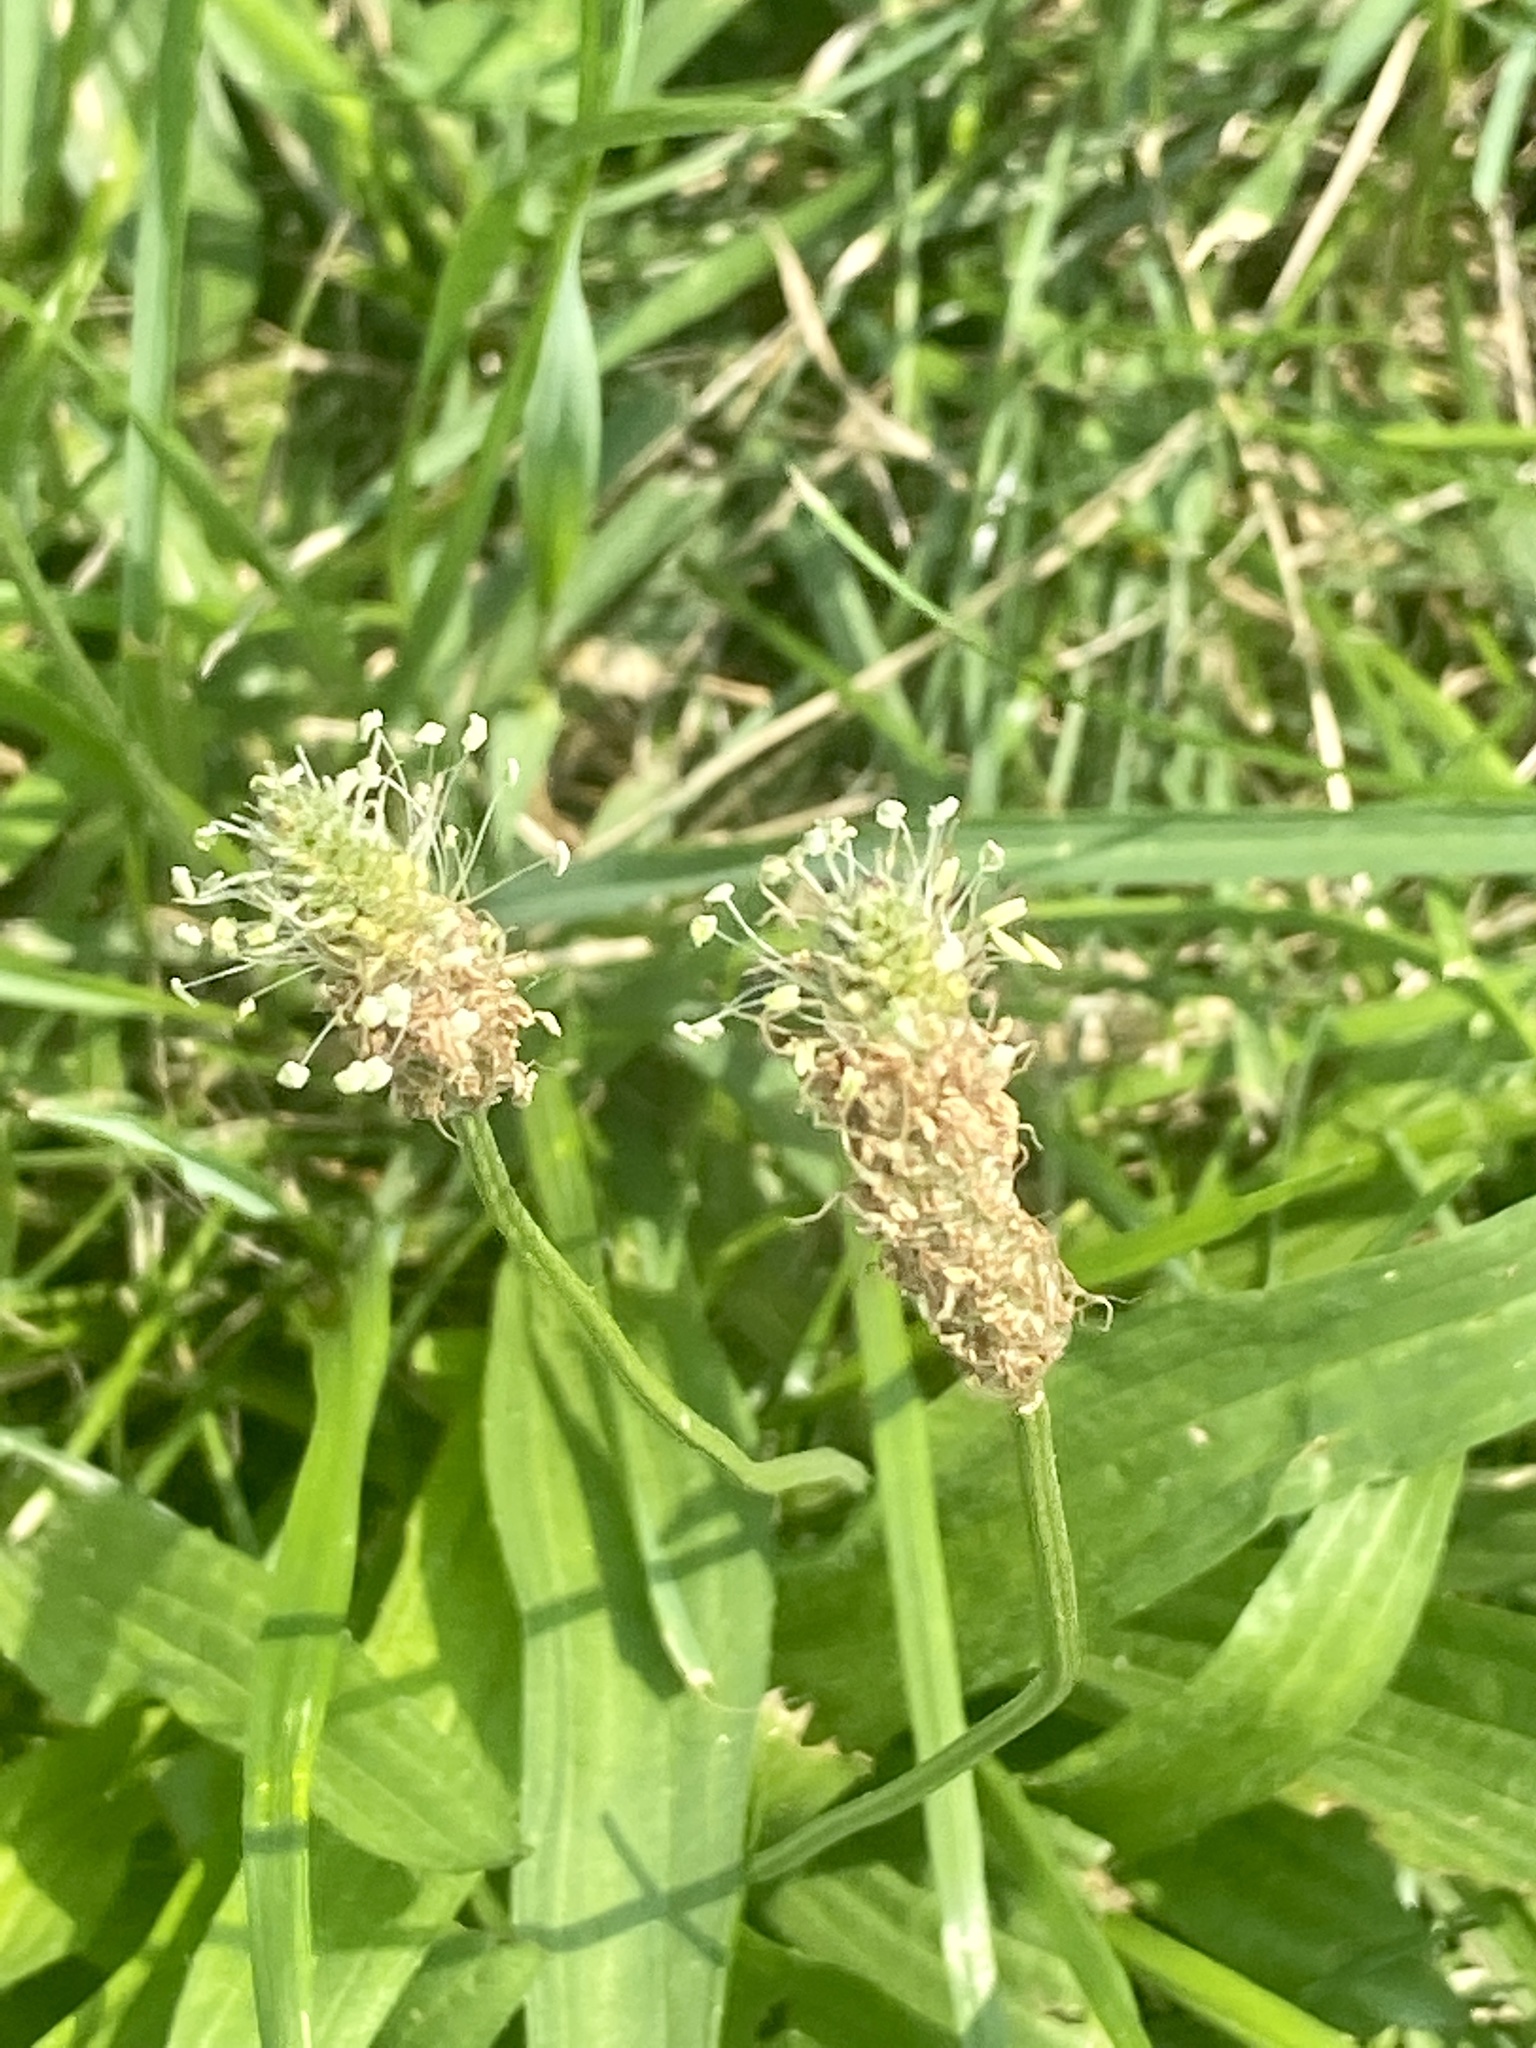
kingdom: Plantae
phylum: Tracheophyta
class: Magnoliopsida
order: Lamiales
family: Plantaginaceae
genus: Plantago
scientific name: Plantago lanceolata
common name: Ribwort plantain
